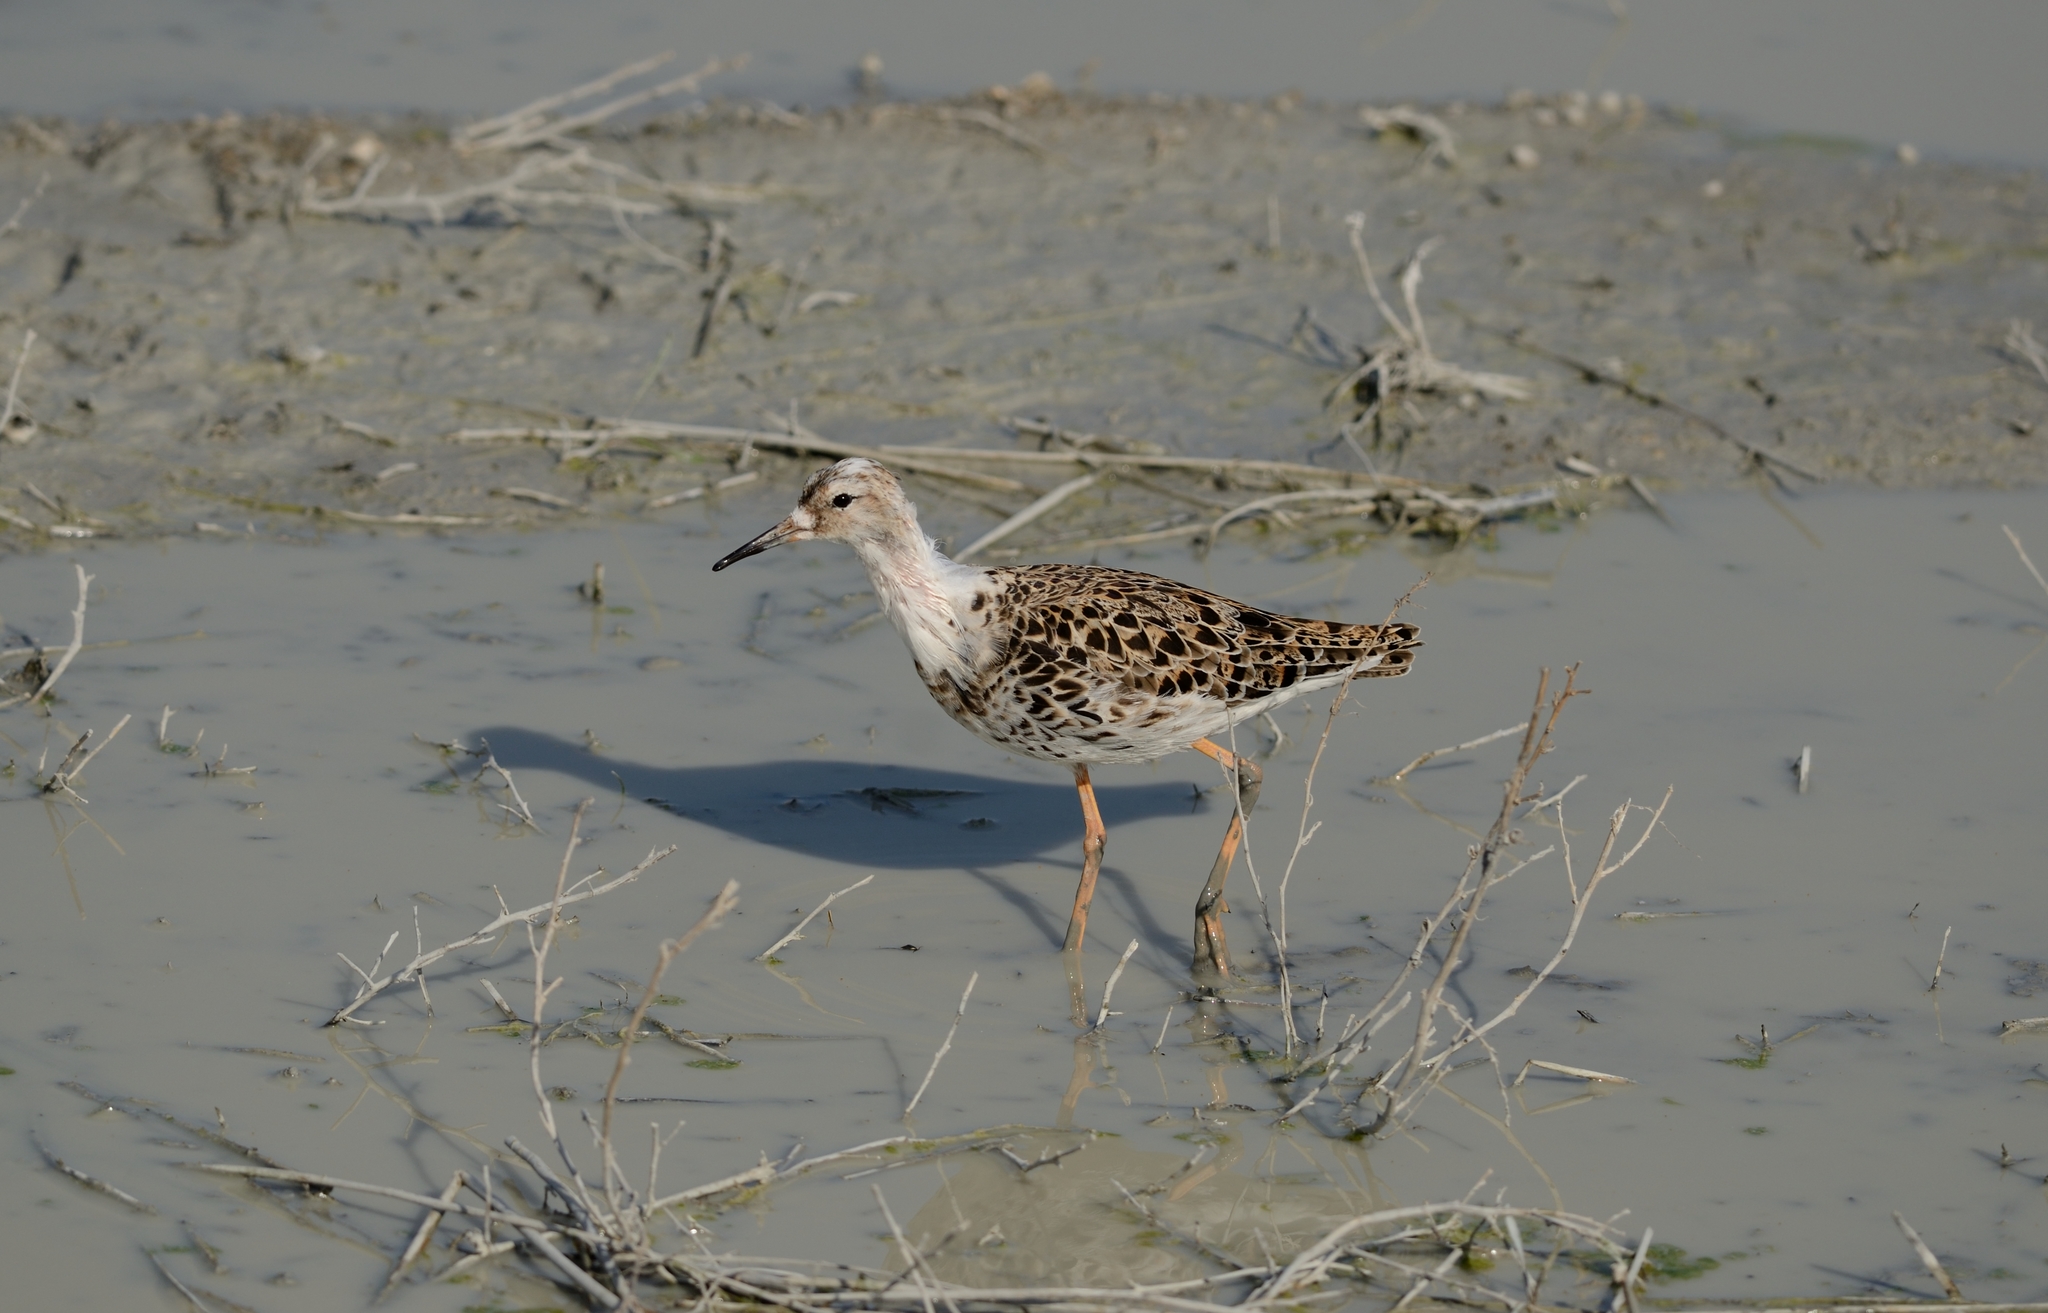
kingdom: Animalia
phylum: Chordata
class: Aves
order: Charadriiformes
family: Scolopacidae
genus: Calidris
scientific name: Calidris pugnax
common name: Ruff
